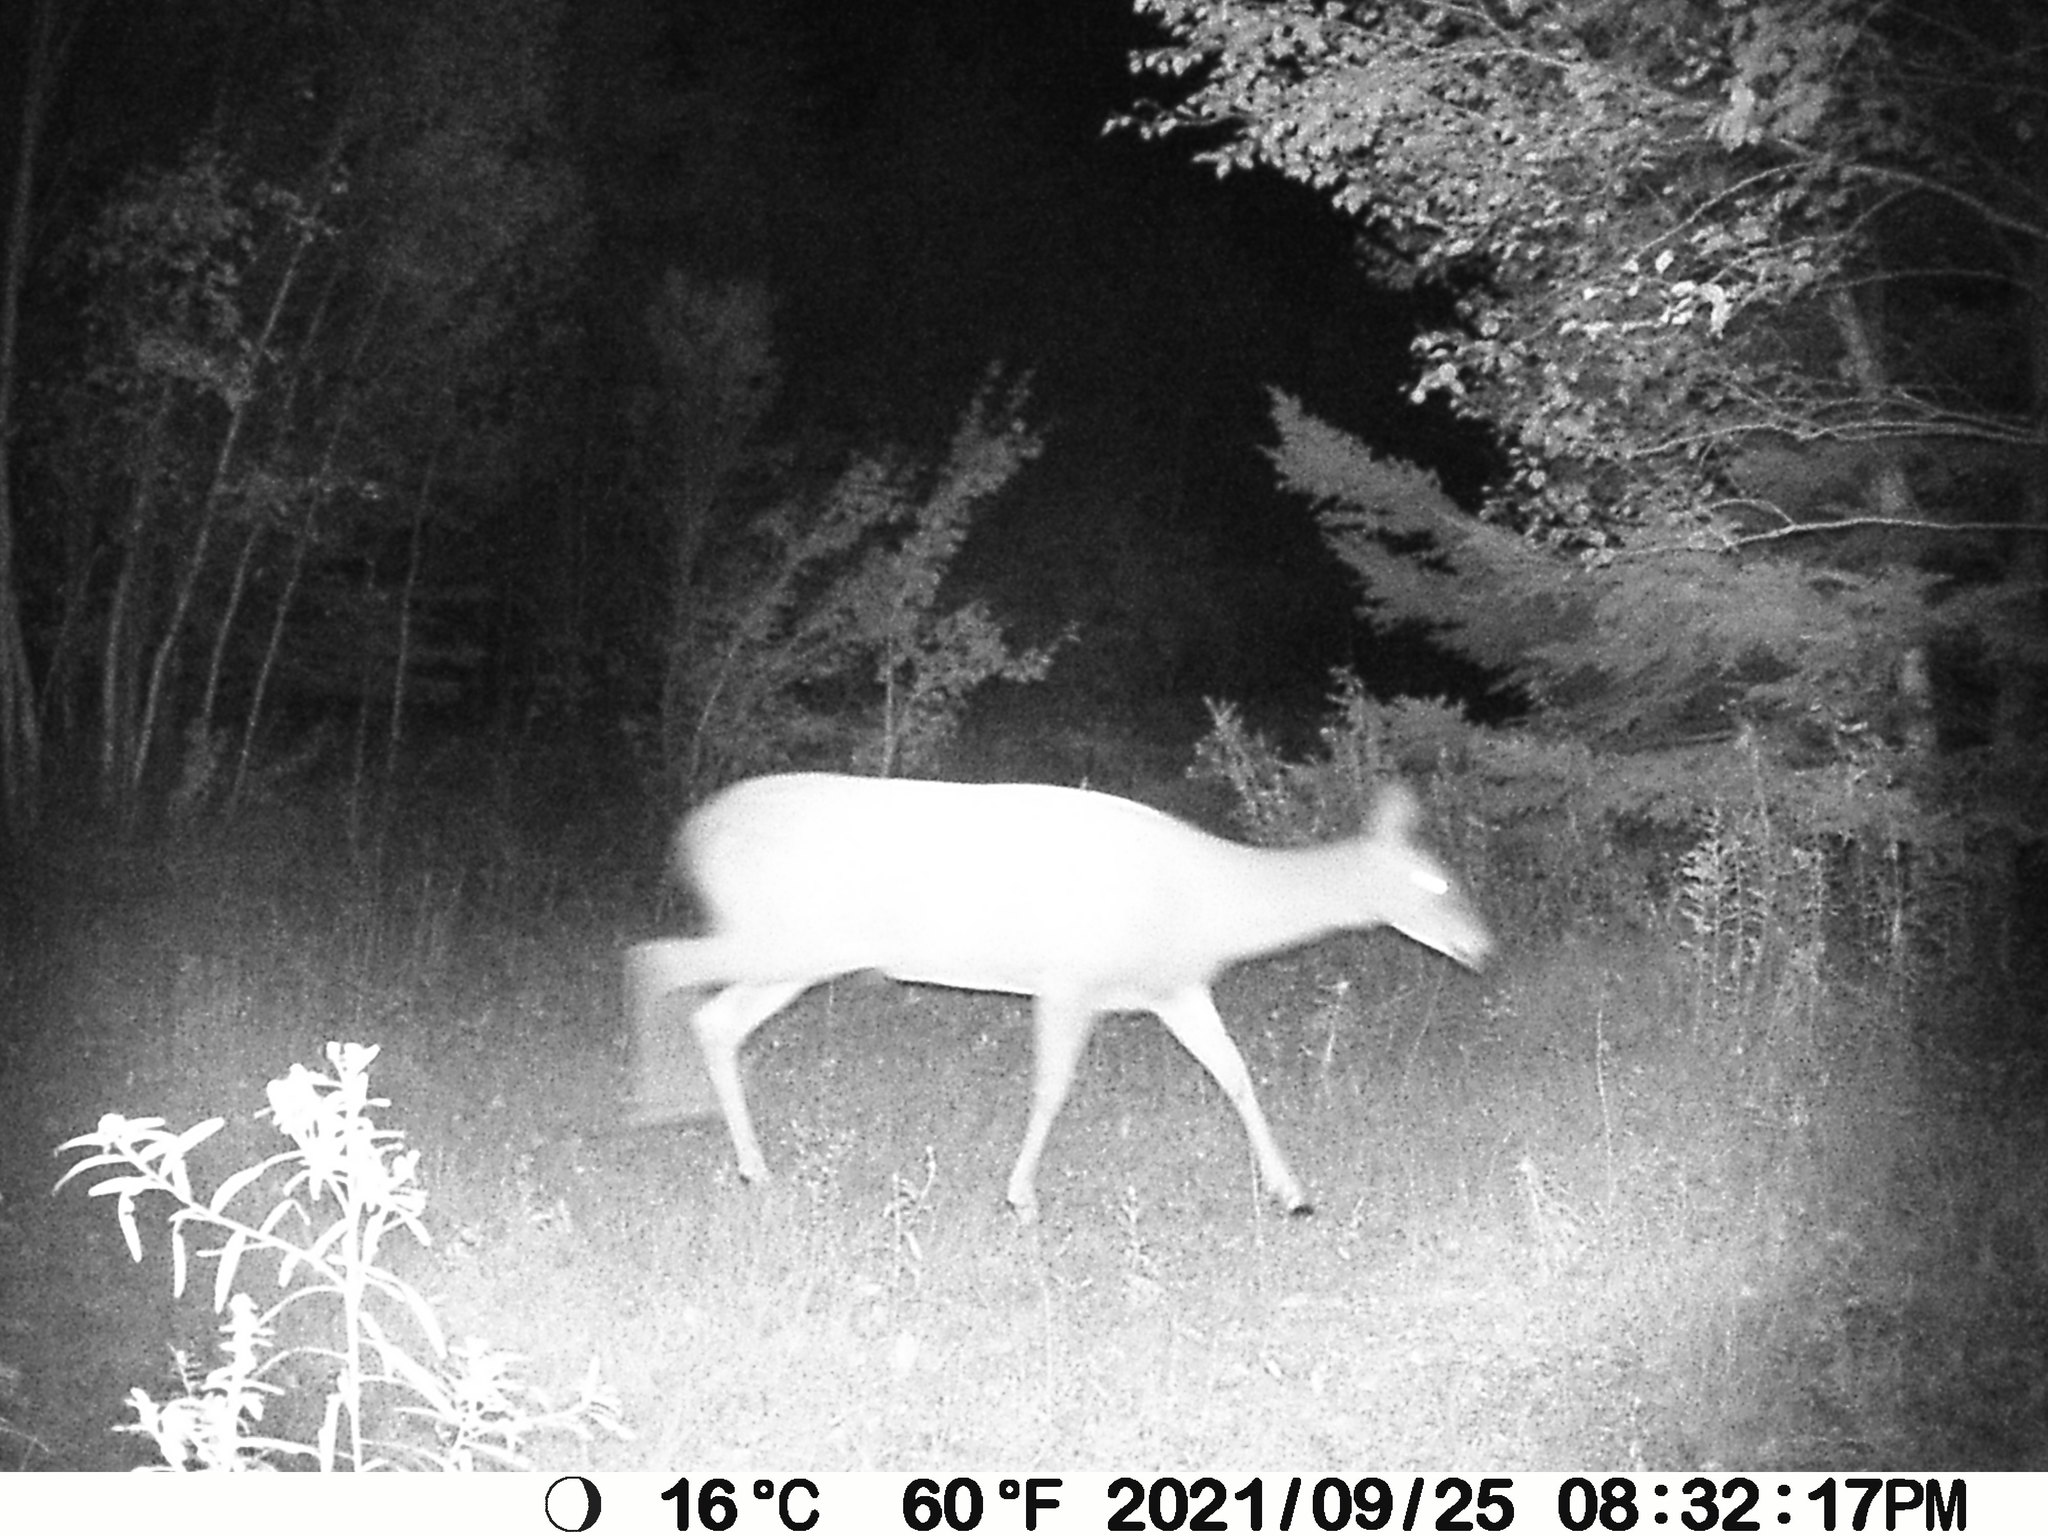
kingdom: Animalia
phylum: Chordata
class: Mammalia
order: Artiodactyla
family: Cervidae
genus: Odocoileus
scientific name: Odocoileus virginianus
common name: White-tailed deer
